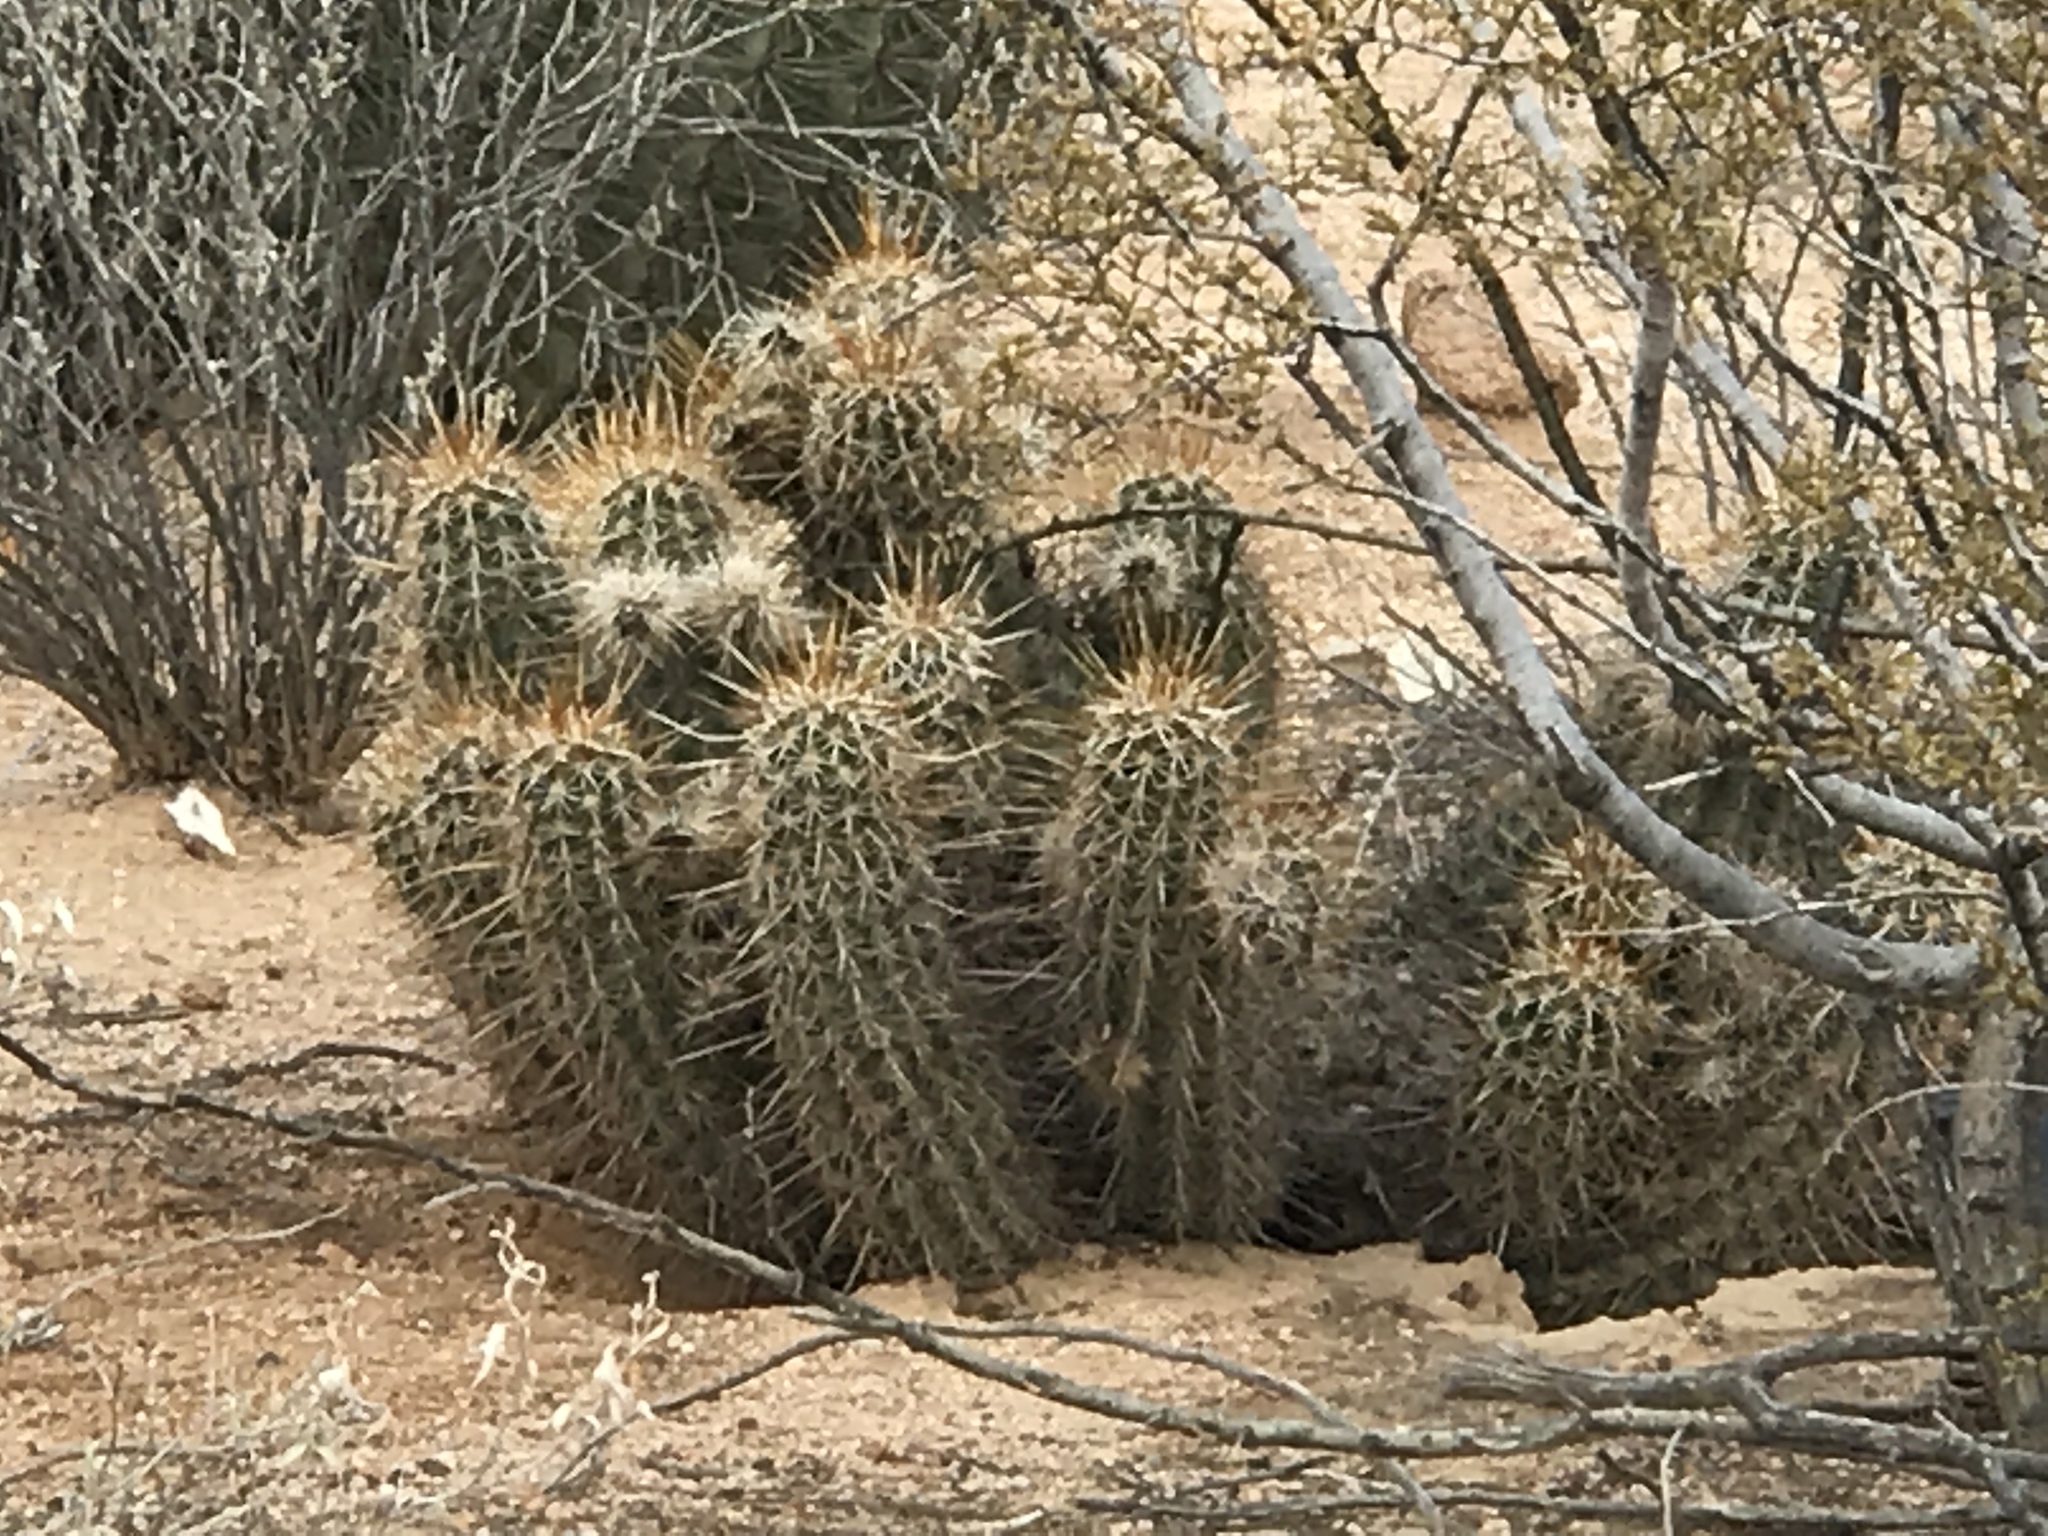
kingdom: Plantae
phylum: Tracheophyta
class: Magnoliopsida
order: Caryophyllales
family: Cactaceae
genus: Echinocereus
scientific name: Echinocereus fasciculatus
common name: Bundle hedgehog
